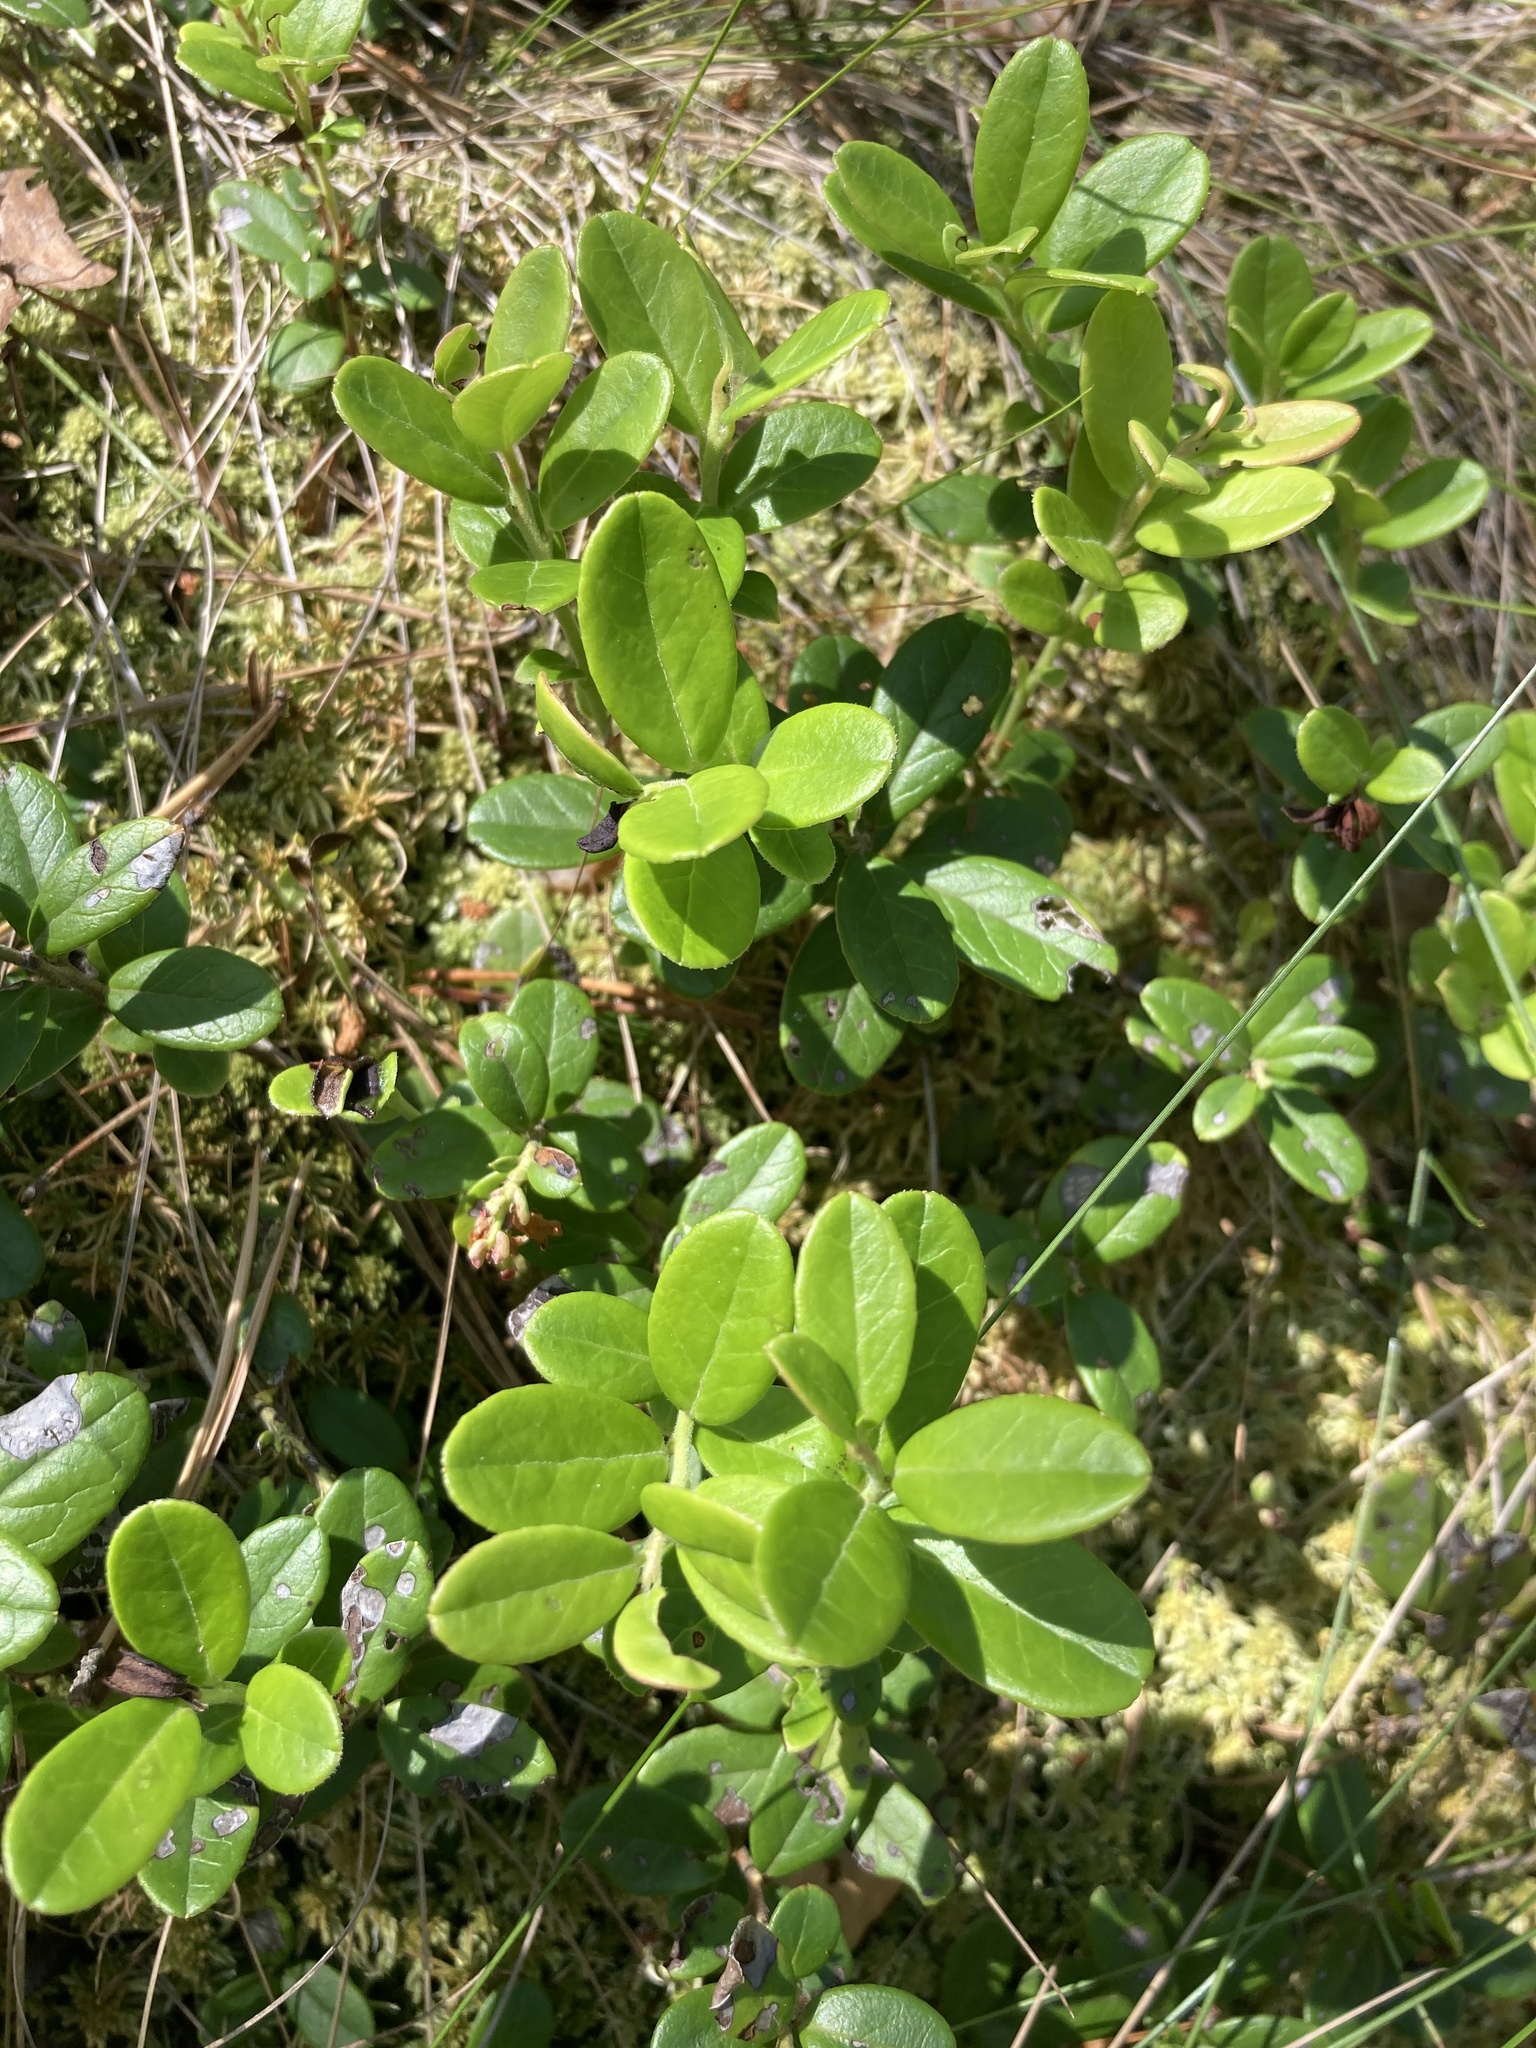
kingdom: Plantae
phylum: Tracheophyta
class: Magnoliopsida
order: Ericales
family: Ericaceae
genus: Vaccinium
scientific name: Vaccinium vitis-idaea
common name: Cowberry
